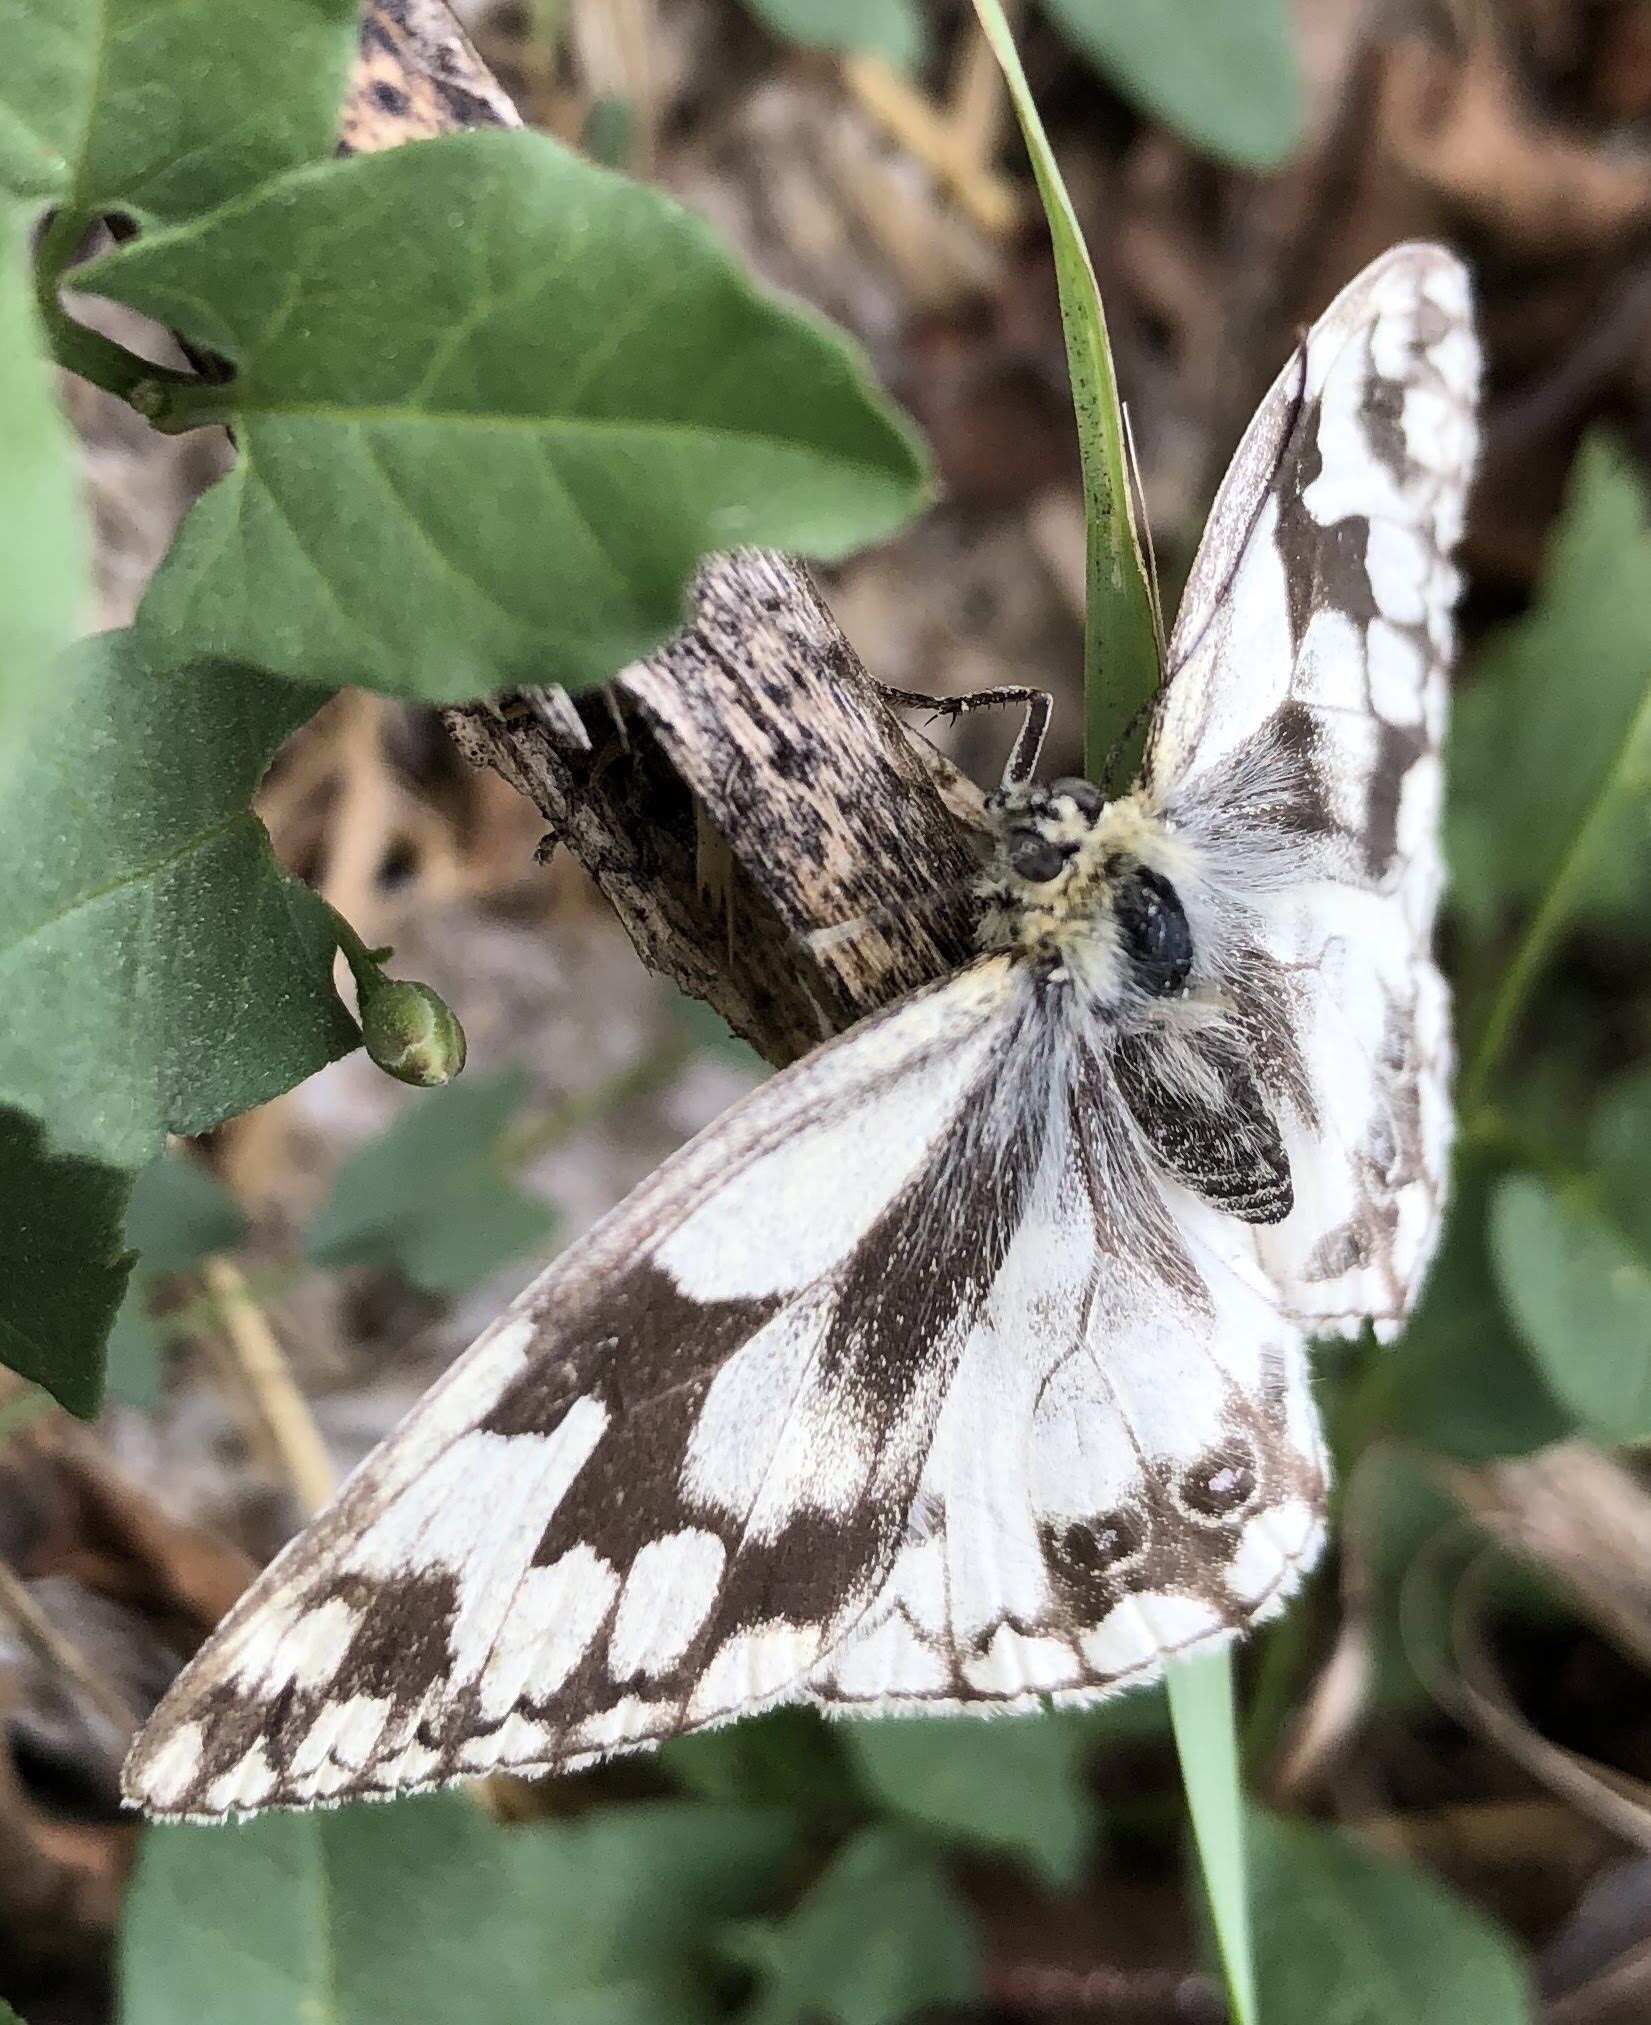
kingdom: Animalia
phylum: Arthropoda
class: Insecta
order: Lepidoptera
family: Nymphalidae
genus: Melanargia
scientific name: Melanargia lachesis
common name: Iberian marbled white
